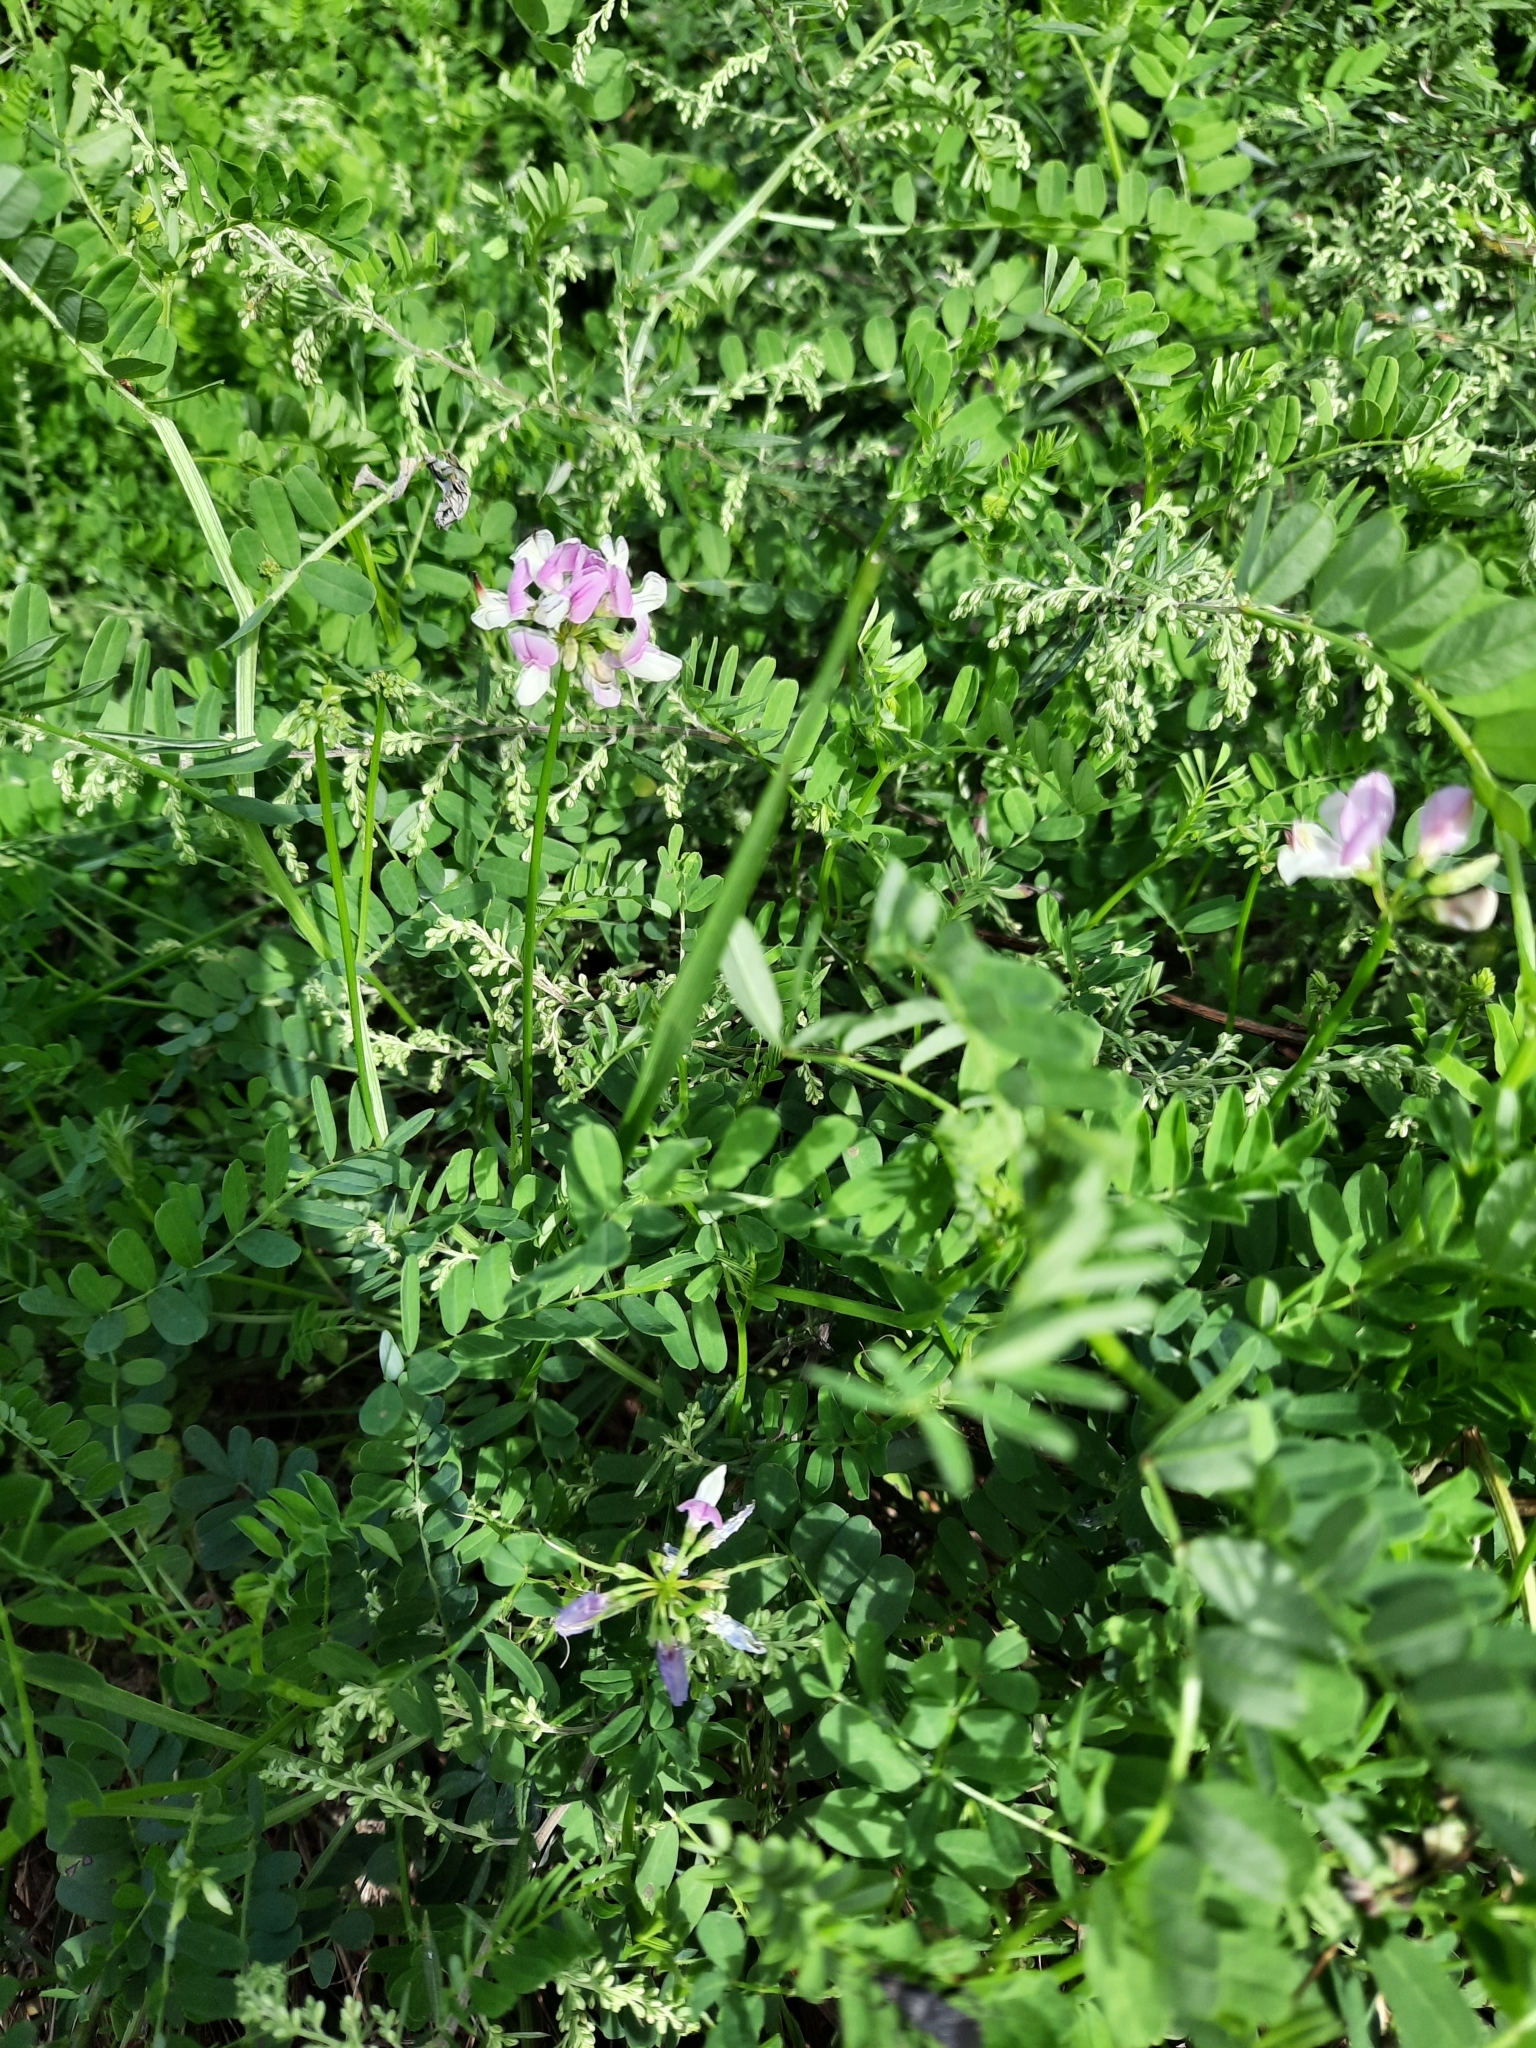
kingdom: Plantae
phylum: Tracheophyta
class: Magnoliopsida
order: Fabales
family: Fabaceae
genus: Coronilla
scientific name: Coronilla varia
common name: Crownvetch
